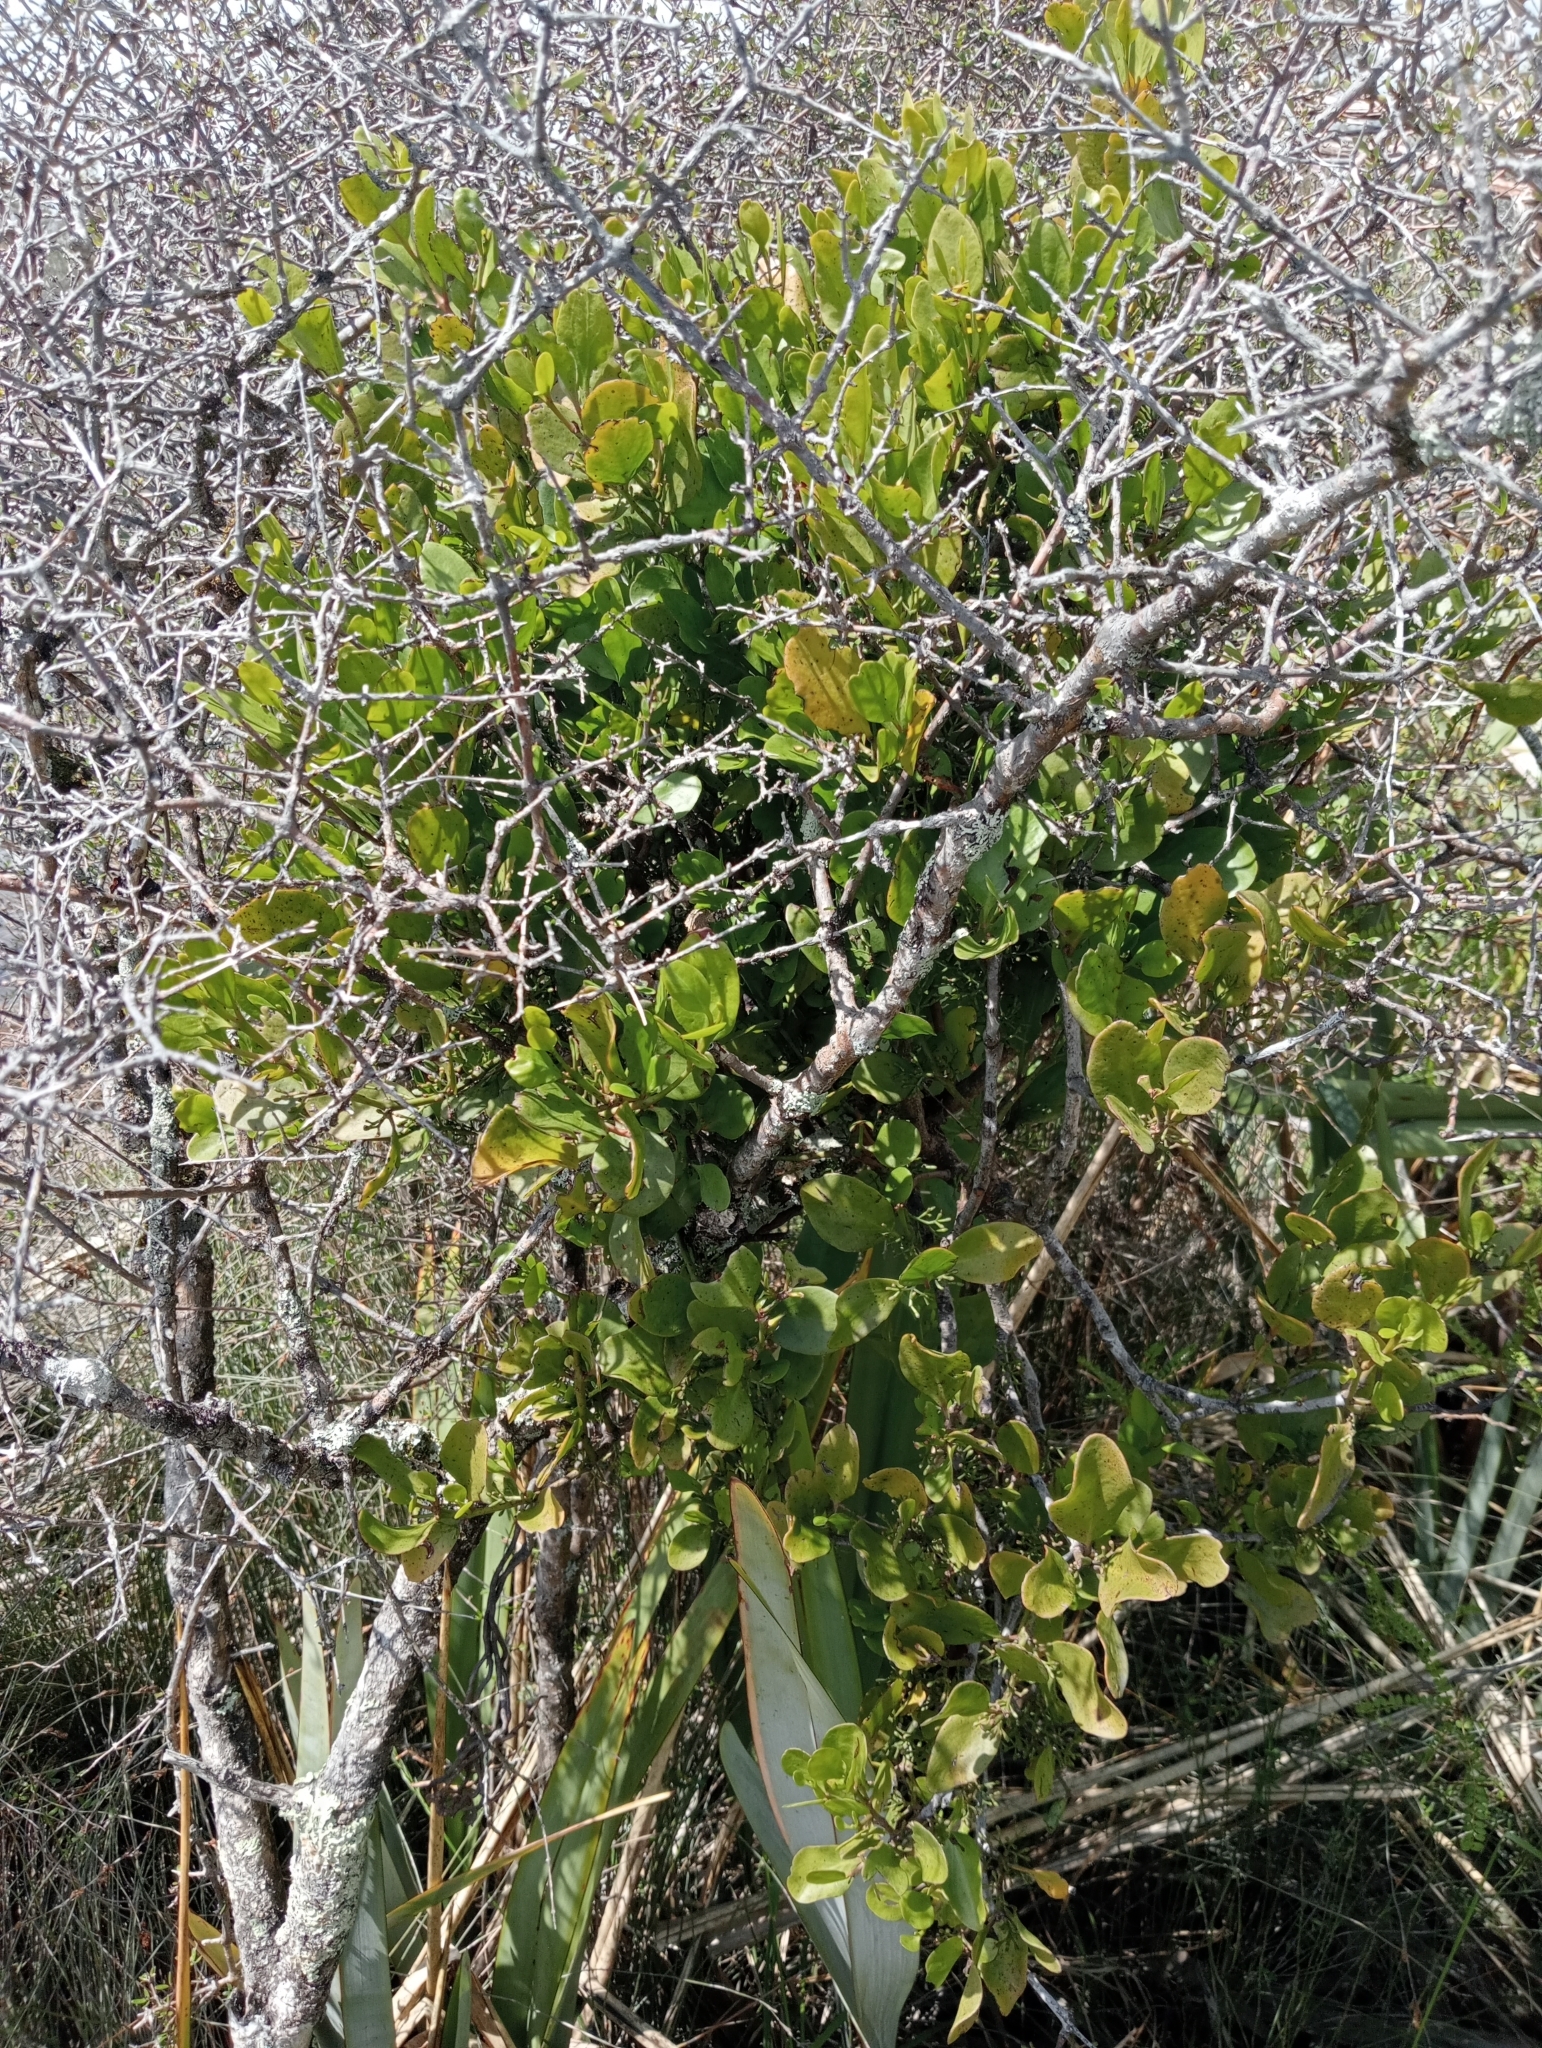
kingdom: Plantae
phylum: Tracheophyta
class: Magnoliopsida
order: Santalales
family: Loranthaceae
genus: Ileostylus
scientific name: Ileostylus micranthus
